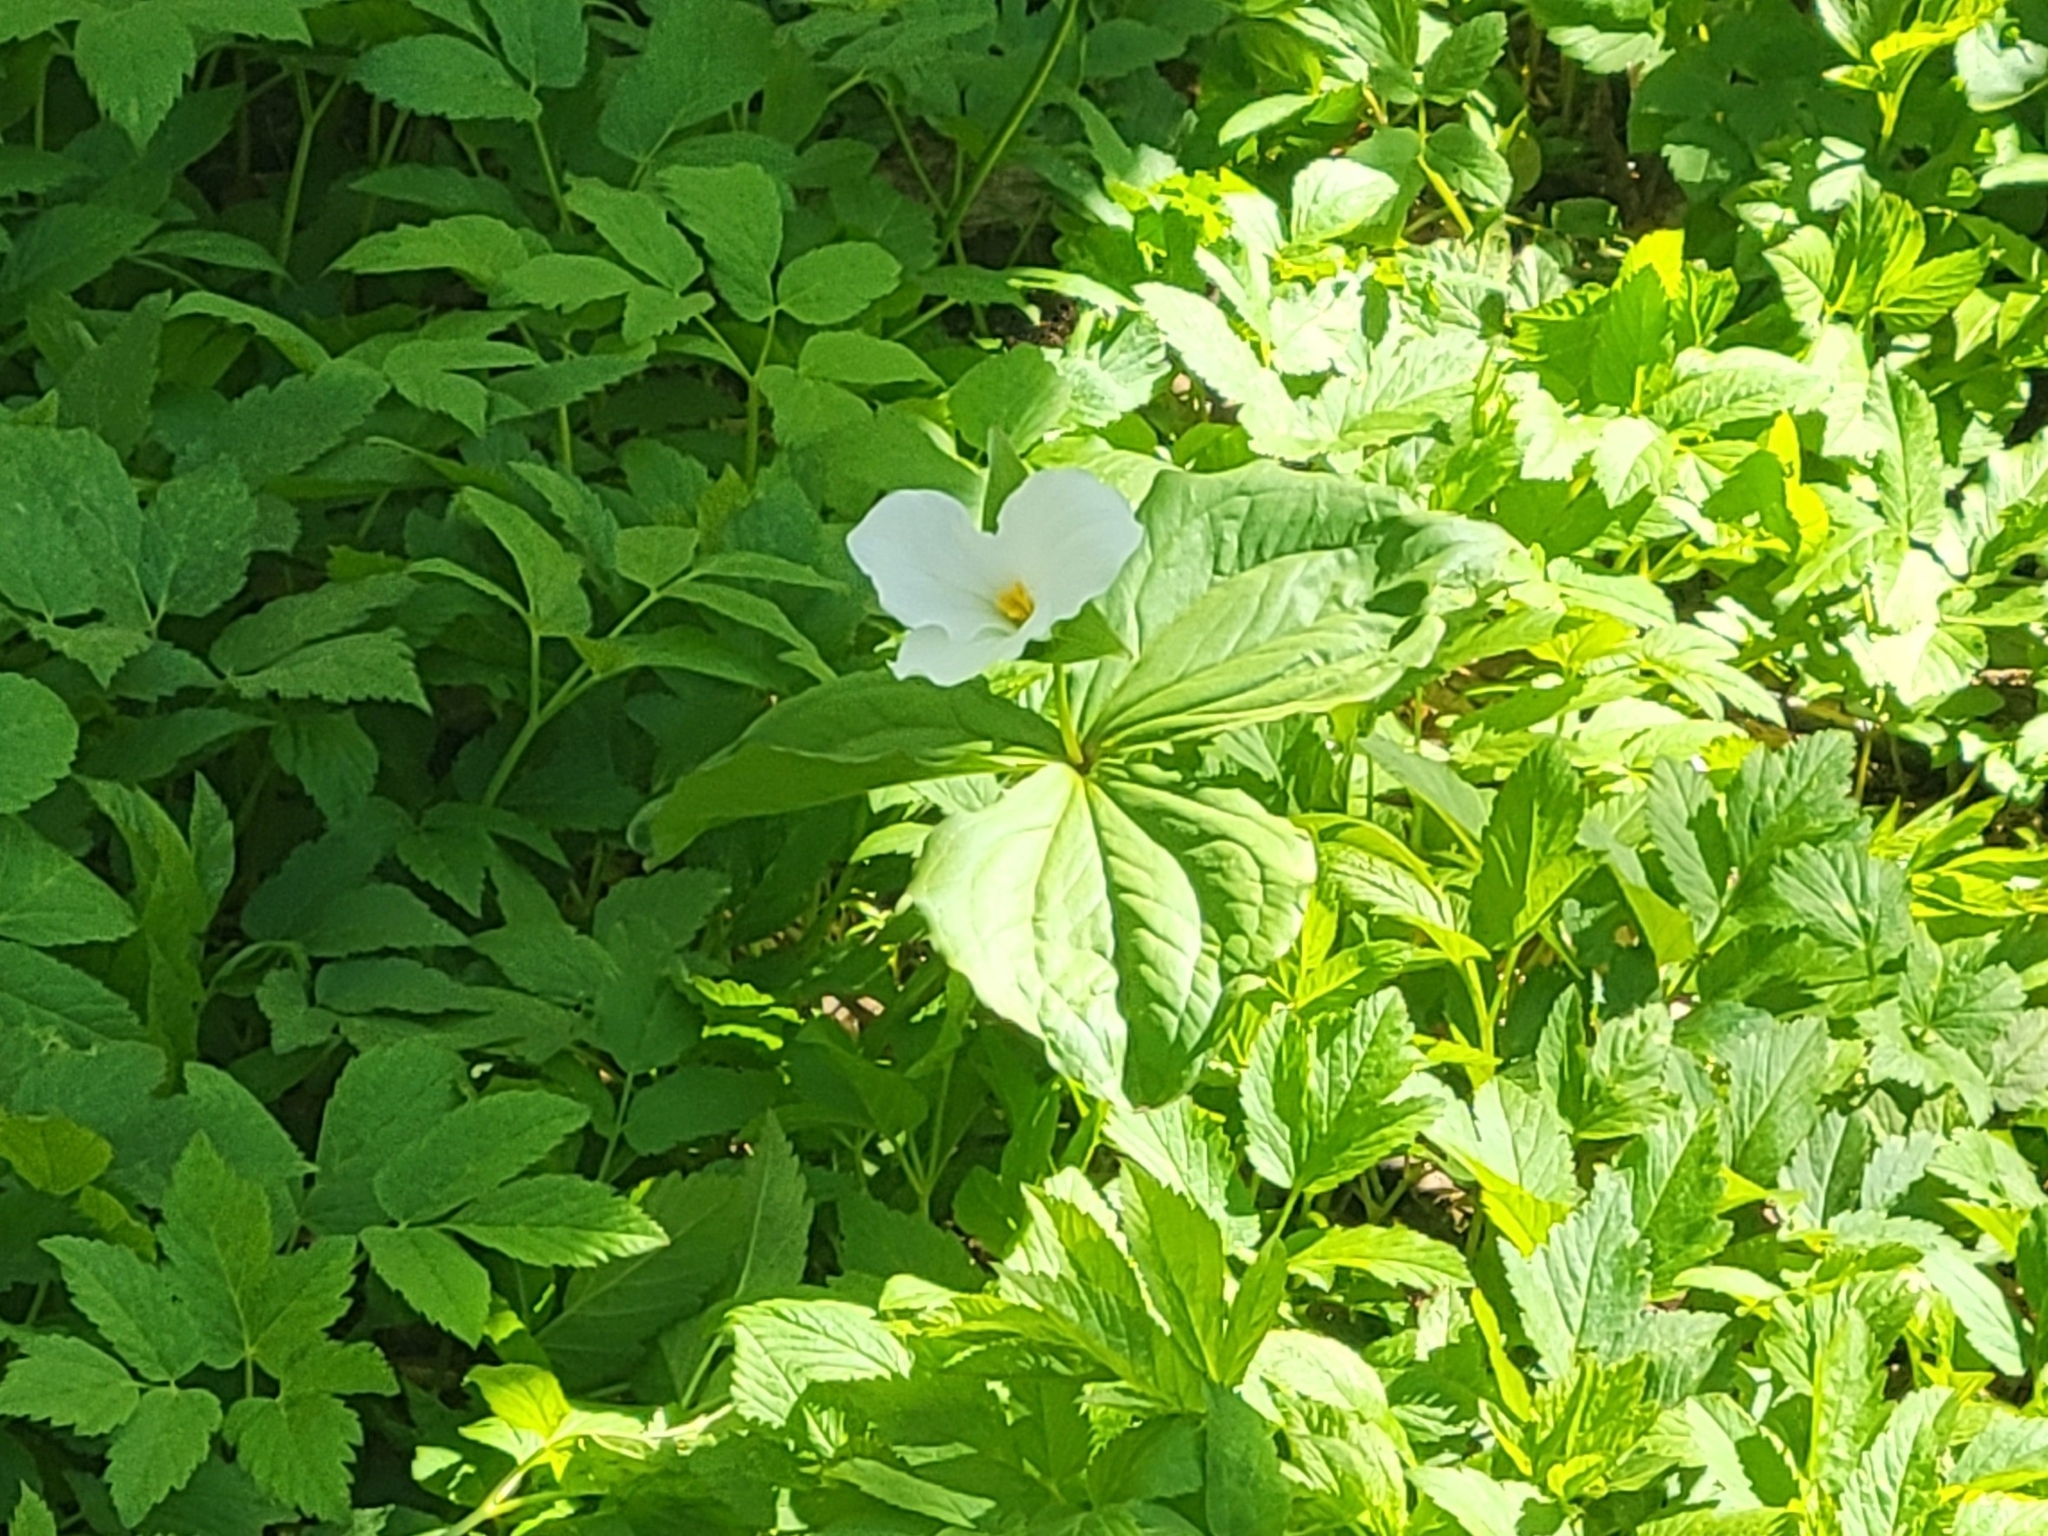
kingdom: Plantae
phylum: Tracheophyta
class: Liliopsida
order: Liliales
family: Melanthiaceae
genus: Trillium
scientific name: Trillium grandiflorum
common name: Great white trillium
